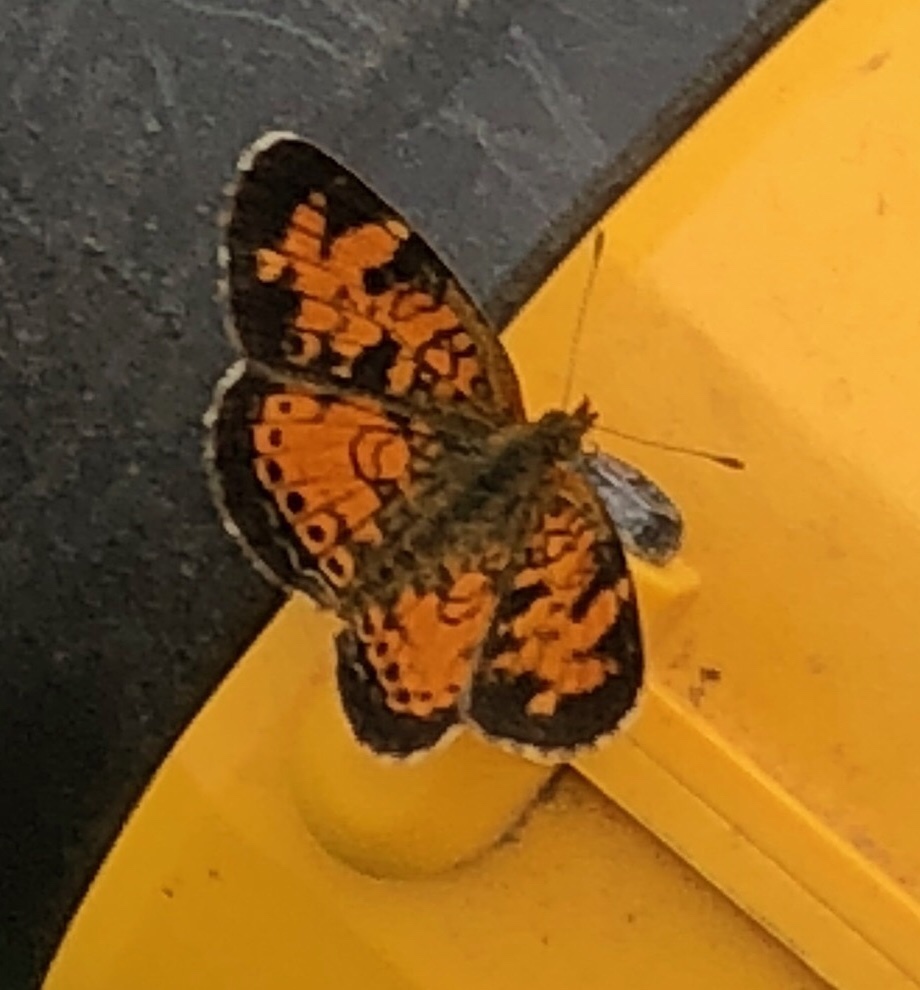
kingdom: Animalia
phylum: Arthropoda
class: Insecta
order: Lepidoptera
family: Nymphalidae
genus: Phyciodes
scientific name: Phyciodes tharos
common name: Pearl crescent
